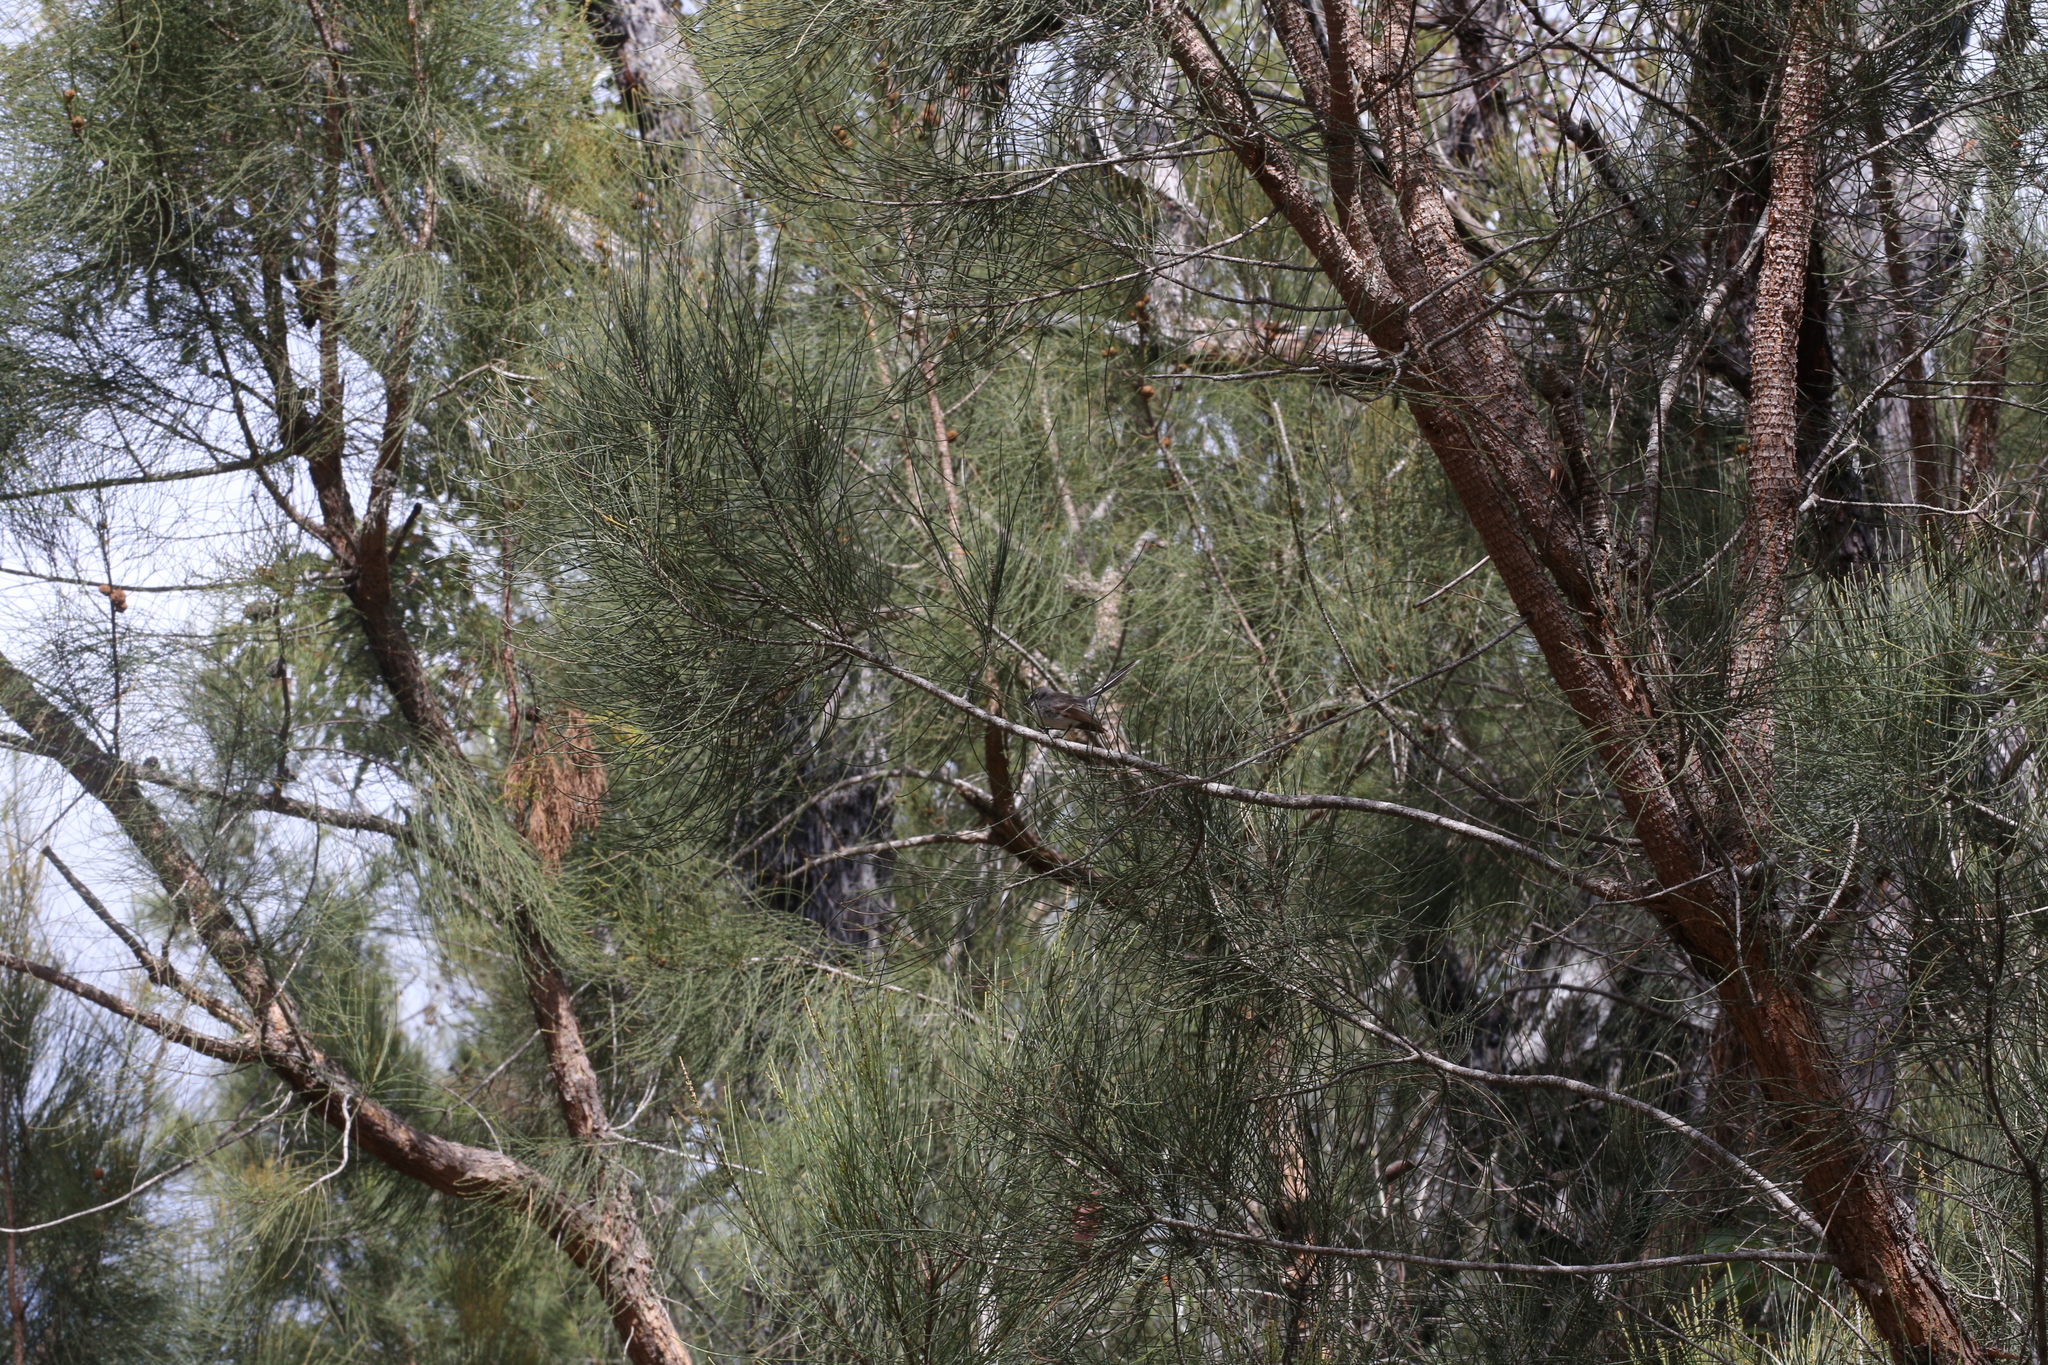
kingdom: Plantae
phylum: Tracheophyta
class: Magnoliopsida
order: Fagales
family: Casuarinaceae
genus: Allocasuarina
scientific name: Allocasuarina fraseriana
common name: Bull-oak
